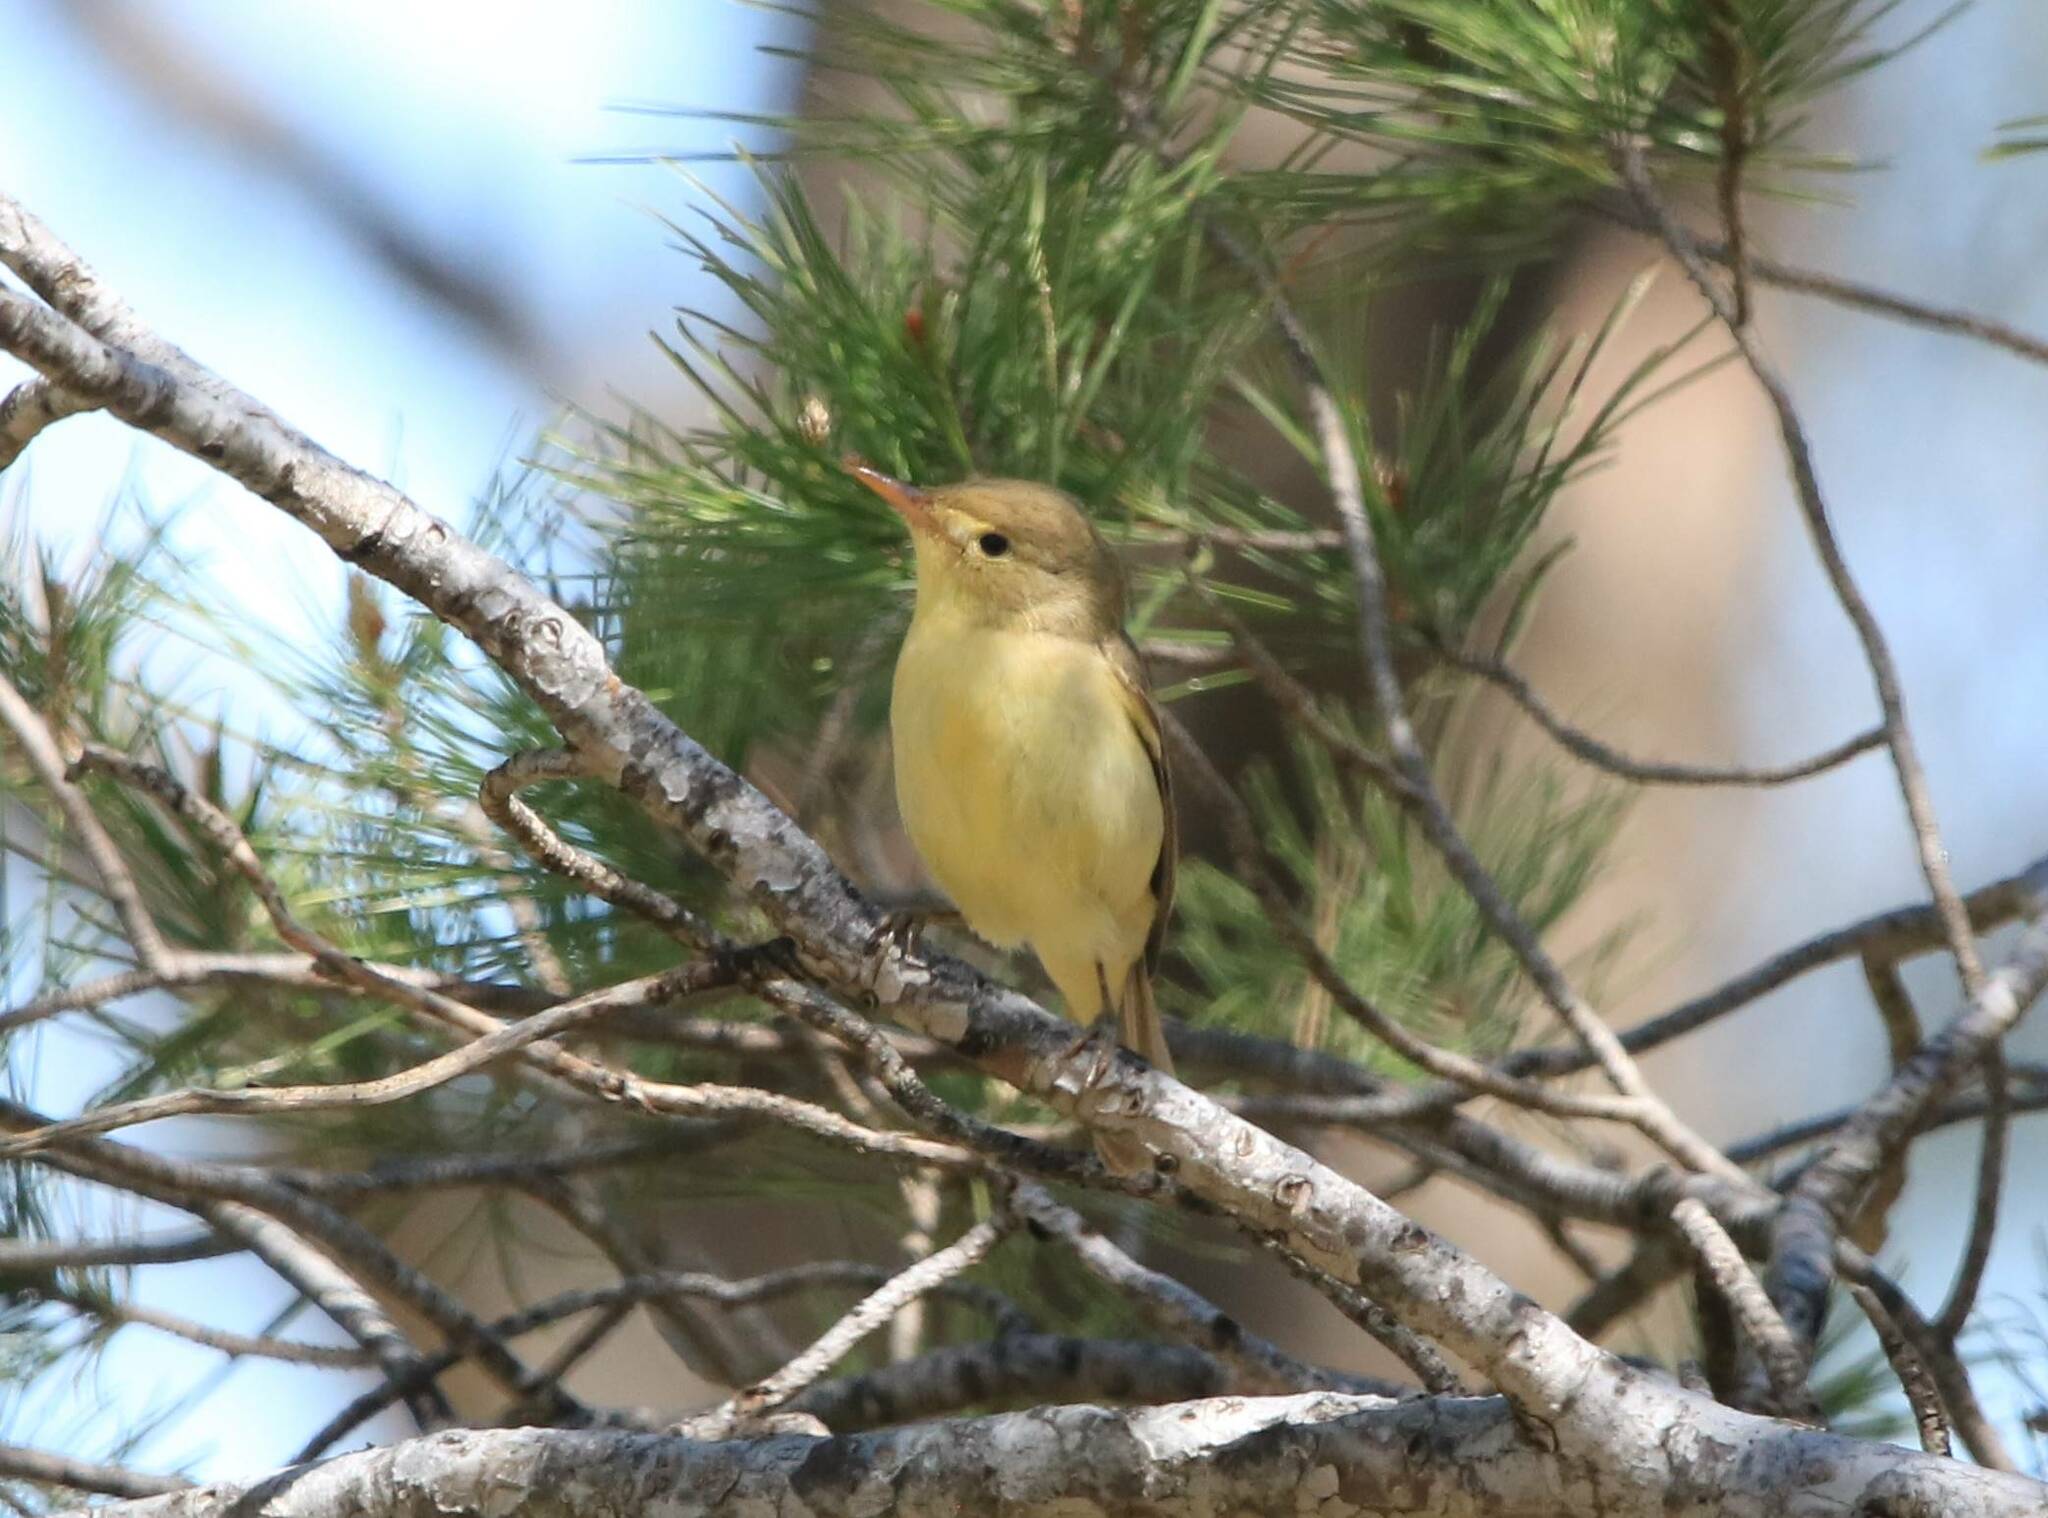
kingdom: Animalia
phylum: Chordata
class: Aves
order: Passeriformes
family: Acrocephalidae
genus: Hippolais
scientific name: Hippolais polyglotta
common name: Melodious warbler
